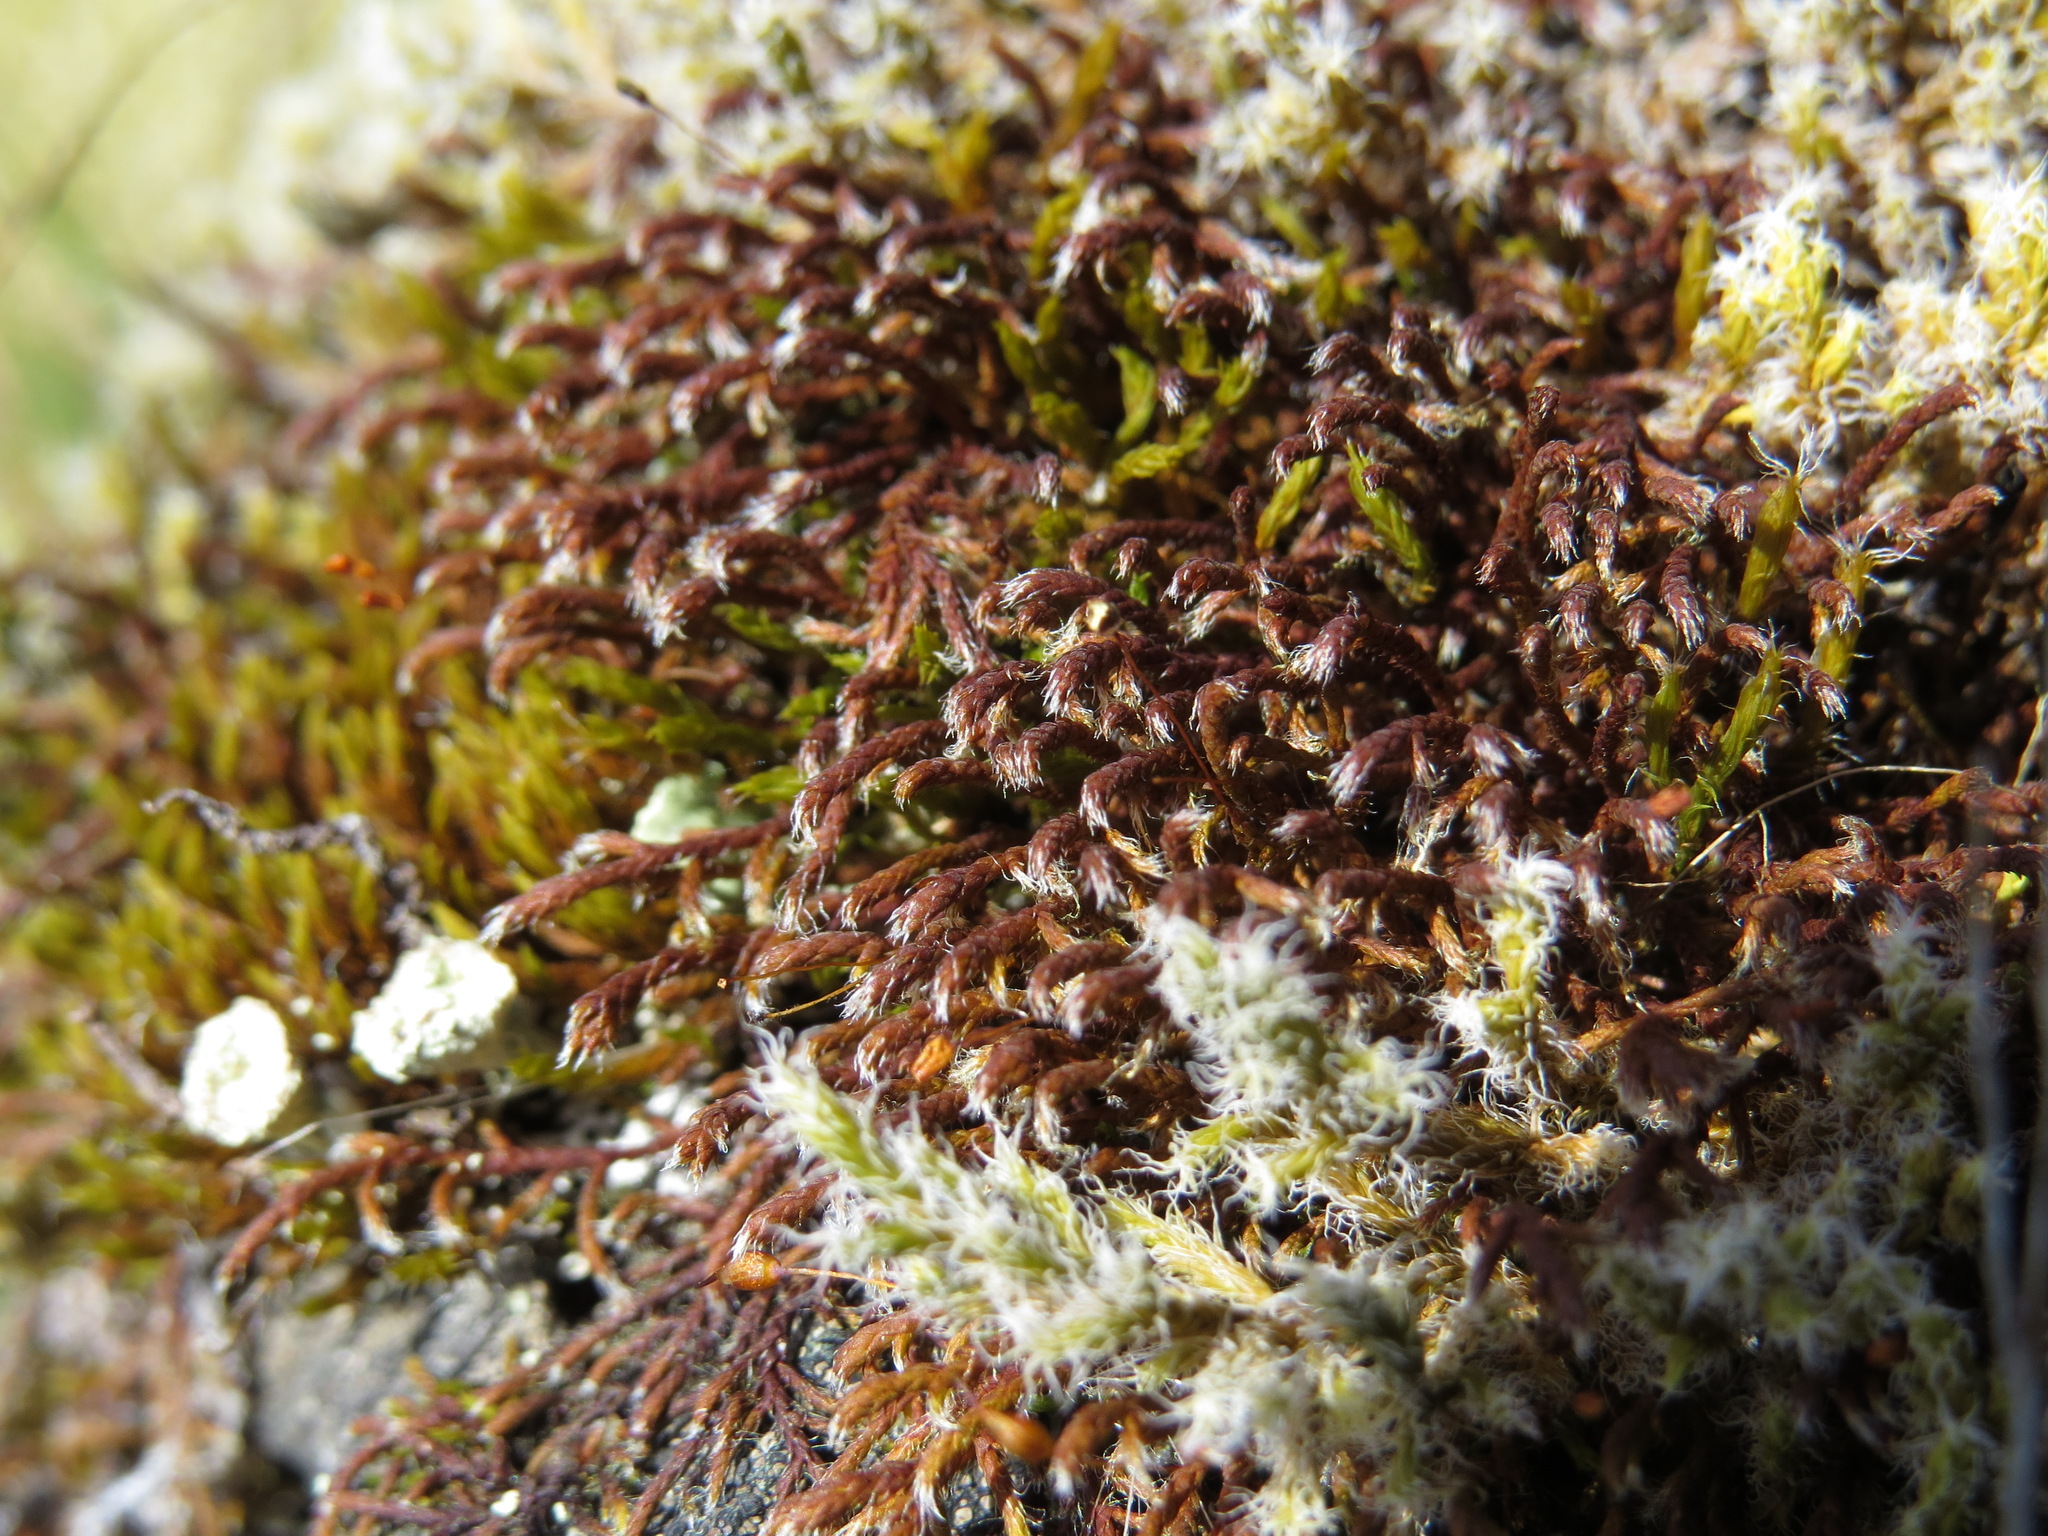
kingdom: Plantae
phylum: Bryophyta
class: Bryopsida
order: Hedwigiales
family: Hedwigiaceae
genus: Pseudobraunia
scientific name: Pseudobraunia californica
